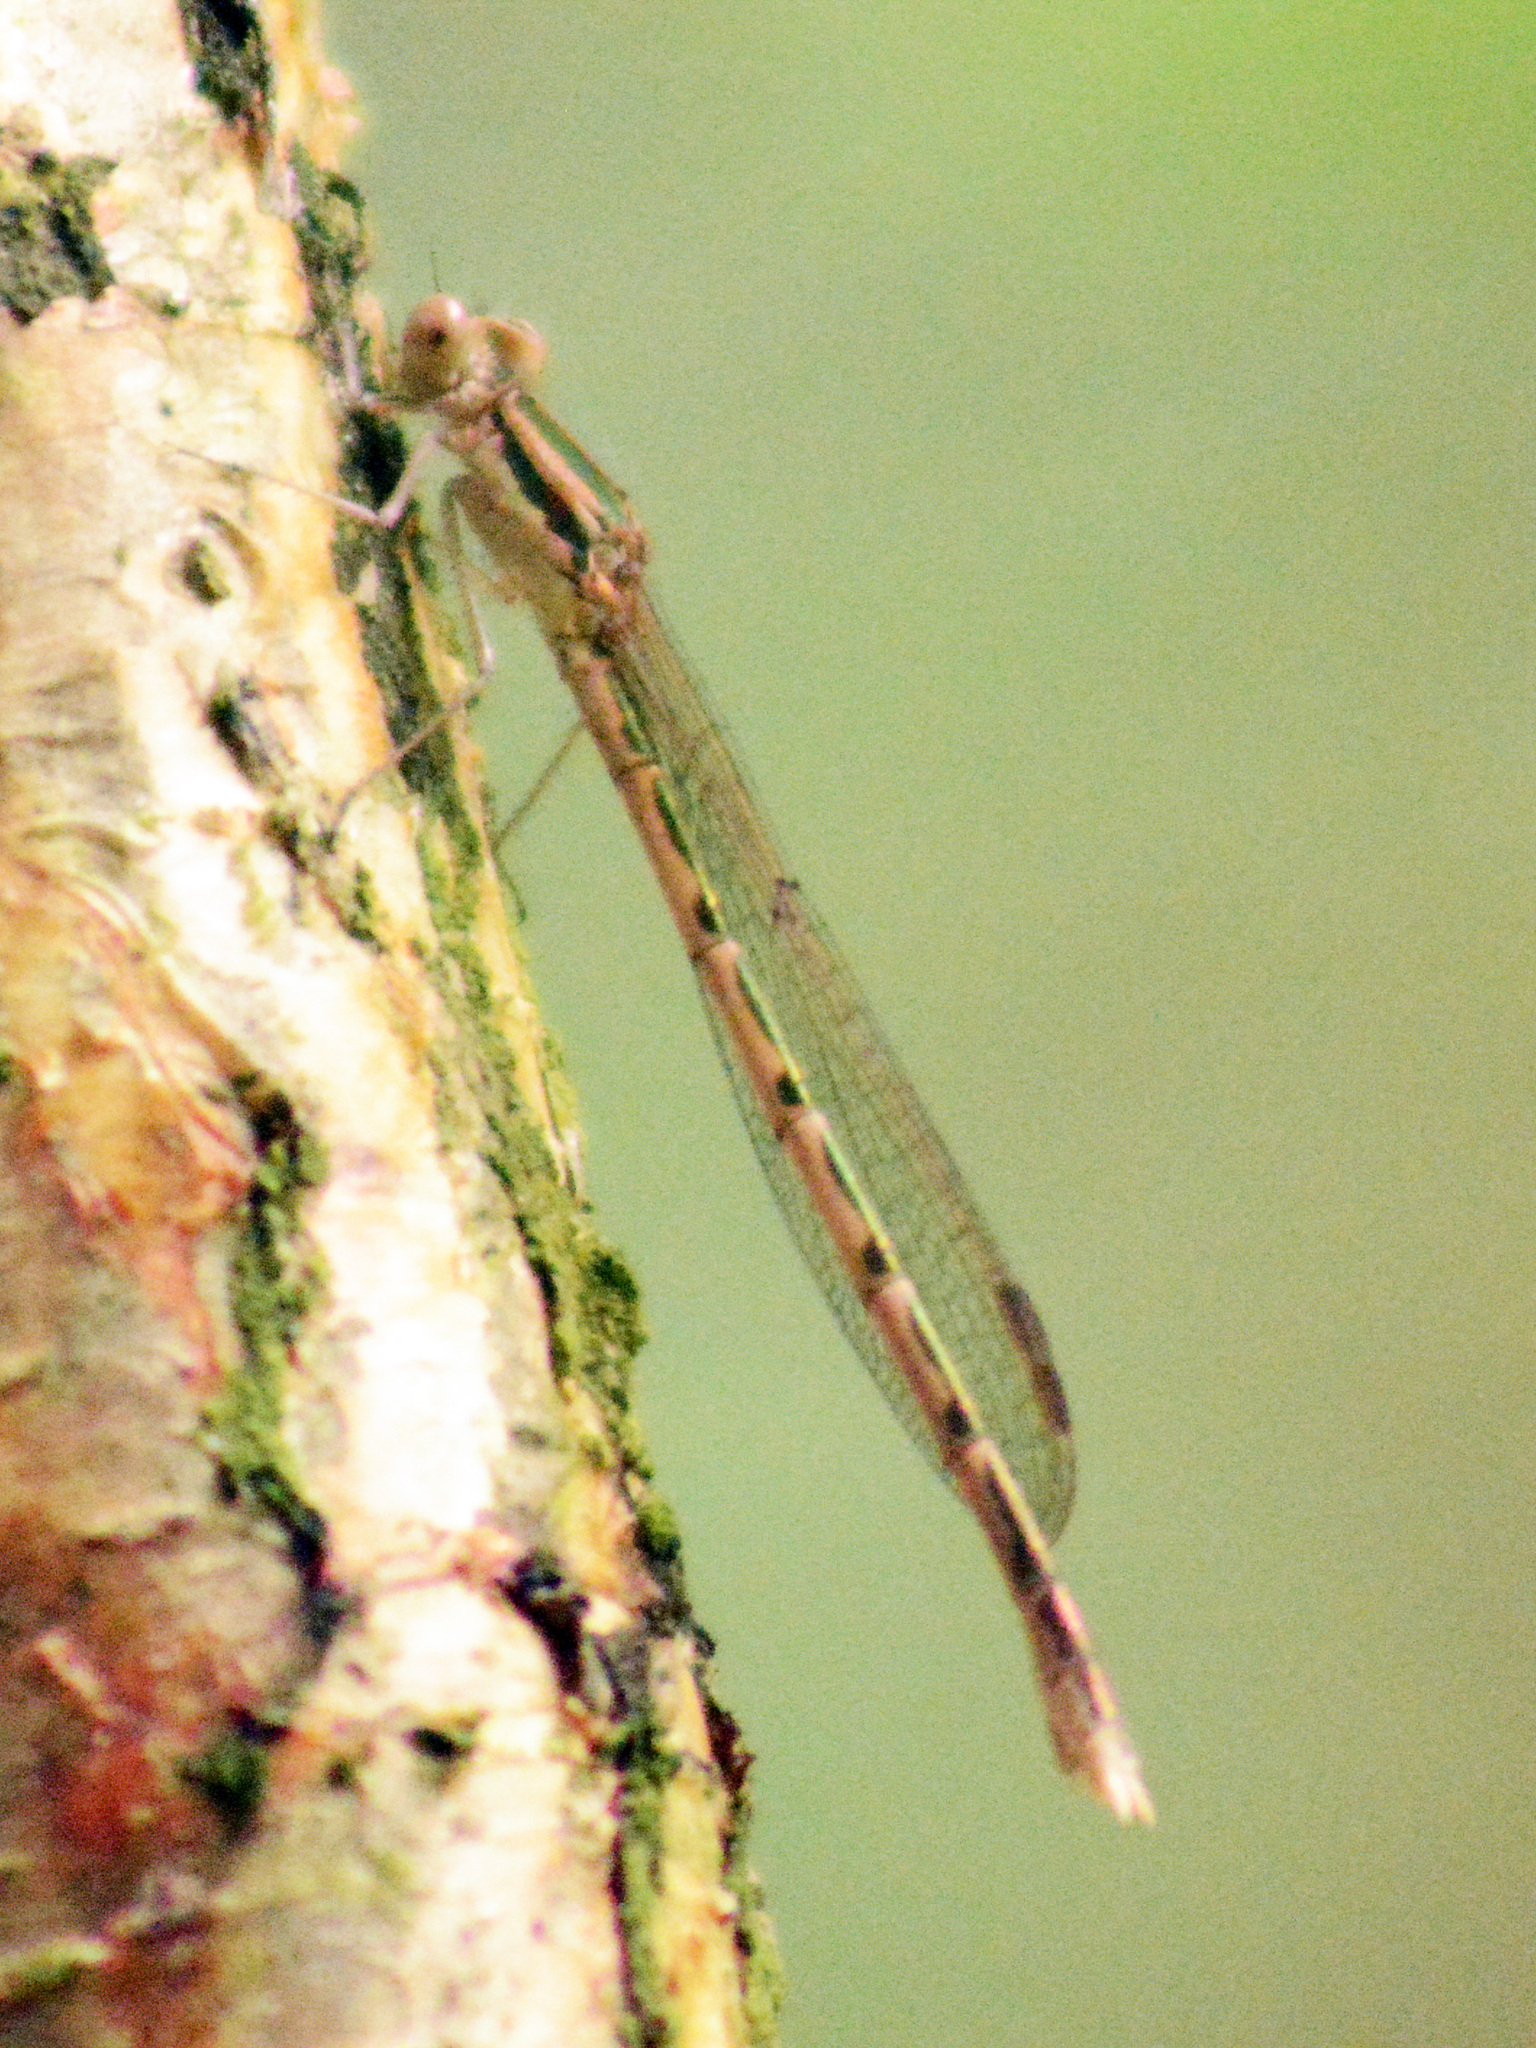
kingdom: Animalia
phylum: Arthropoda
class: Insecta
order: Odonata
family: Lestidae
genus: Sympecma
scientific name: Sympecma fusca
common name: Common winter damsel
